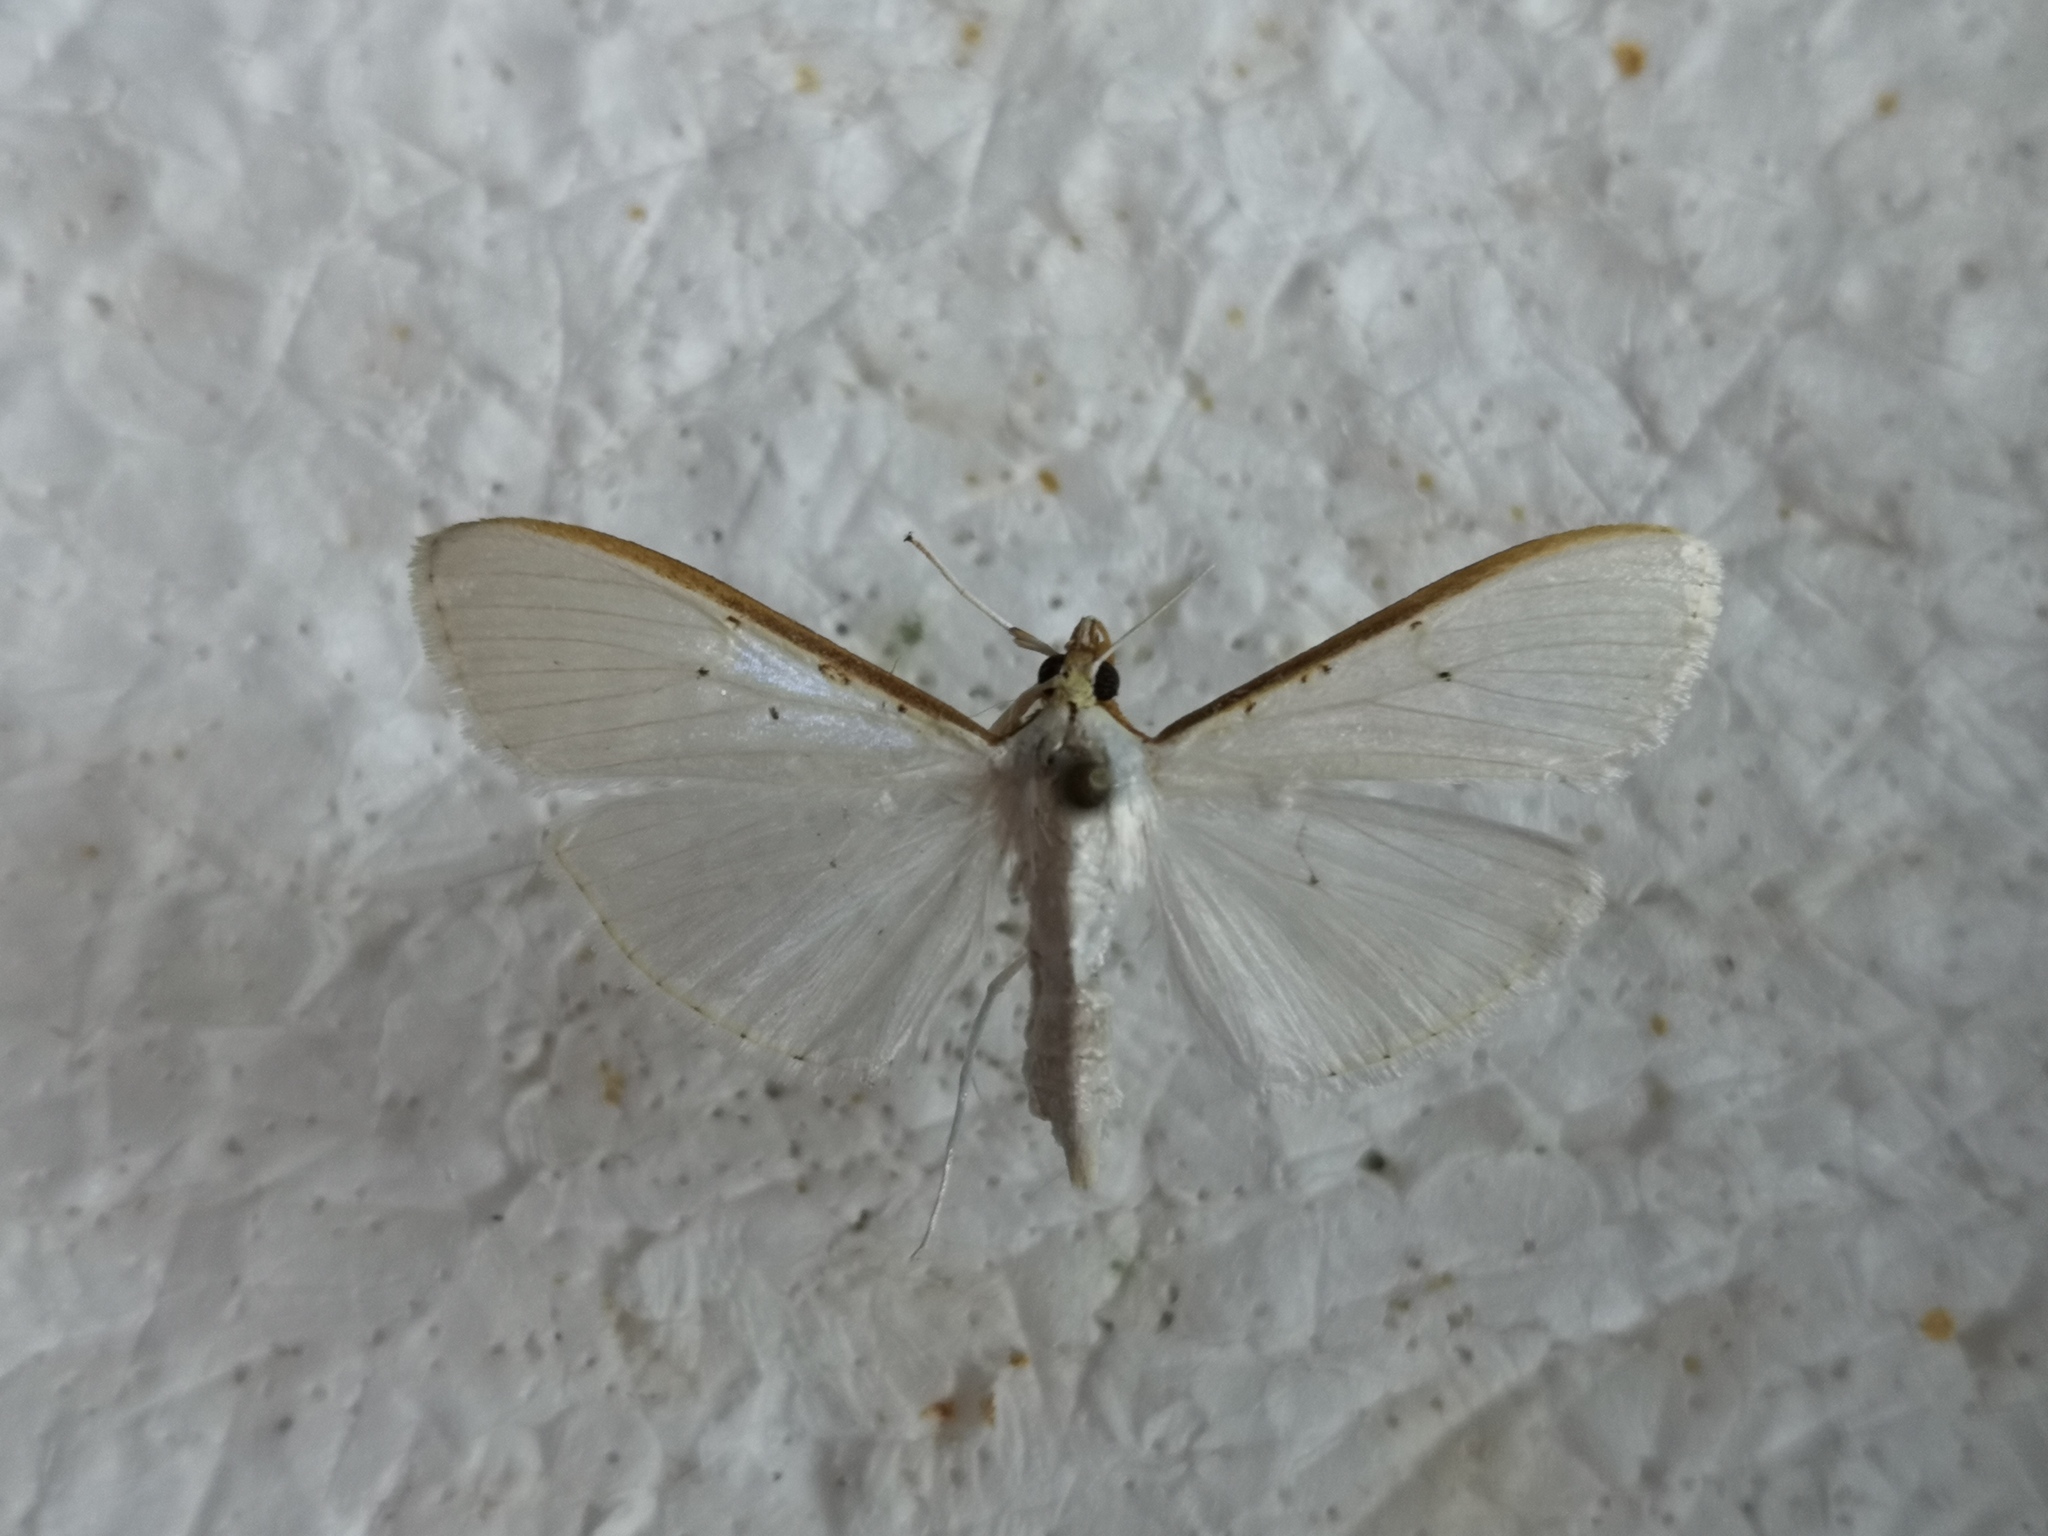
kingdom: Animalia
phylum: Arthropoda
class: Insecta
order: Lepidoptera
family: Crambidae
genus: Palpita
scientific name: Palpita vitrealis
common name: Olive-tree pearl
